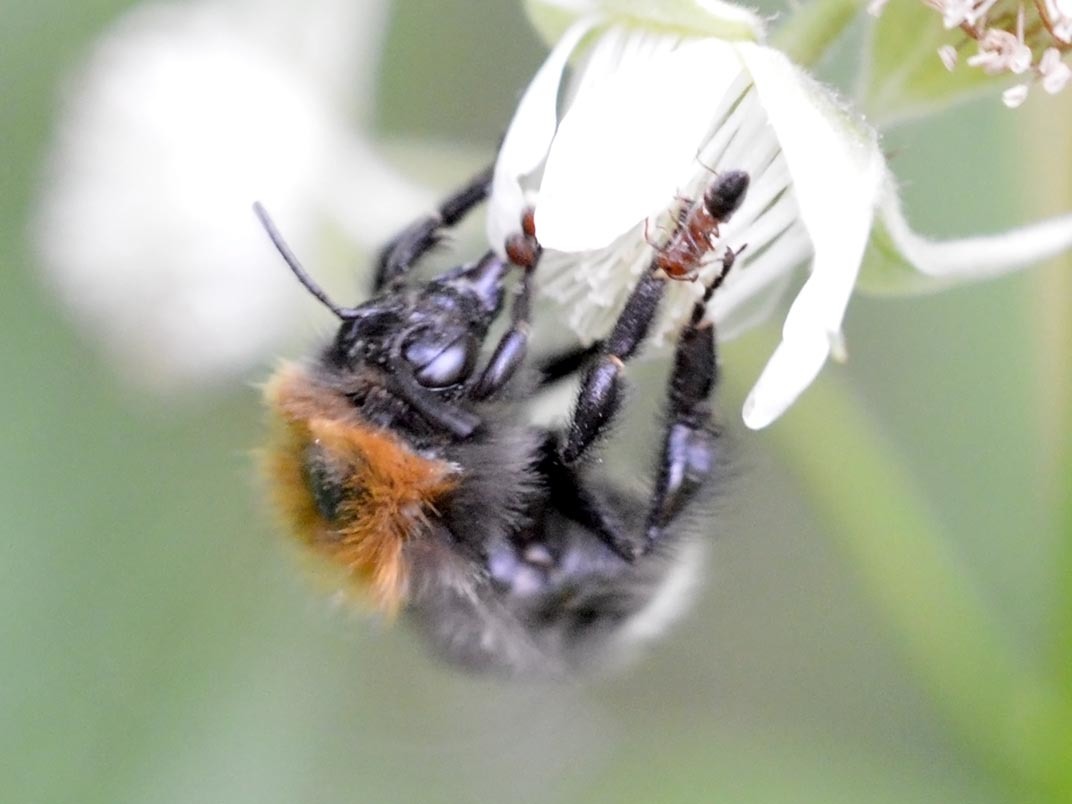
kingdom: Animalia
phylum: Arthropoda
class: Insecta
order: Hymenoptera
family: Apidae
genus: Bombus
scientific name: Bombus hypnorum
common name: New garden bumblebee
